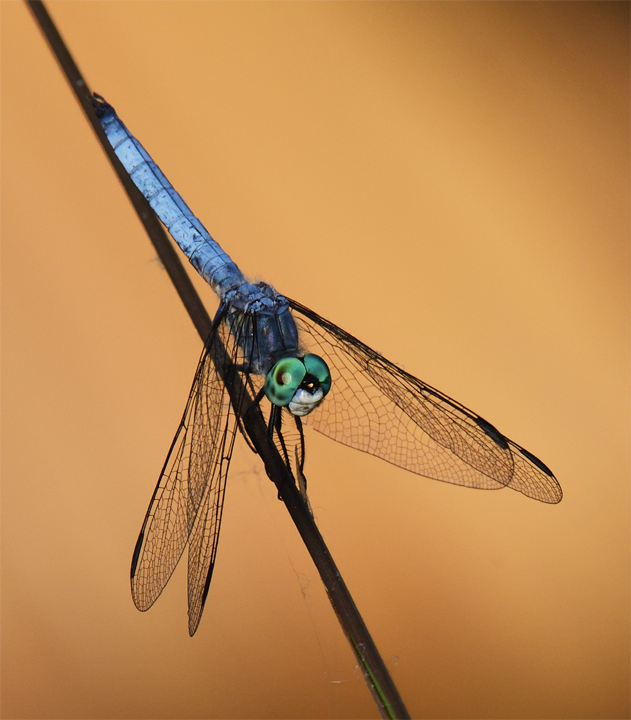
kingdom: Animalia
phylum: Arthropoda
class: Insecta
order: Odonata
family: Libellulidae
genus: Pachydiplax
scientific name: Pachydiplax longipennis
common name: Blue dasher
